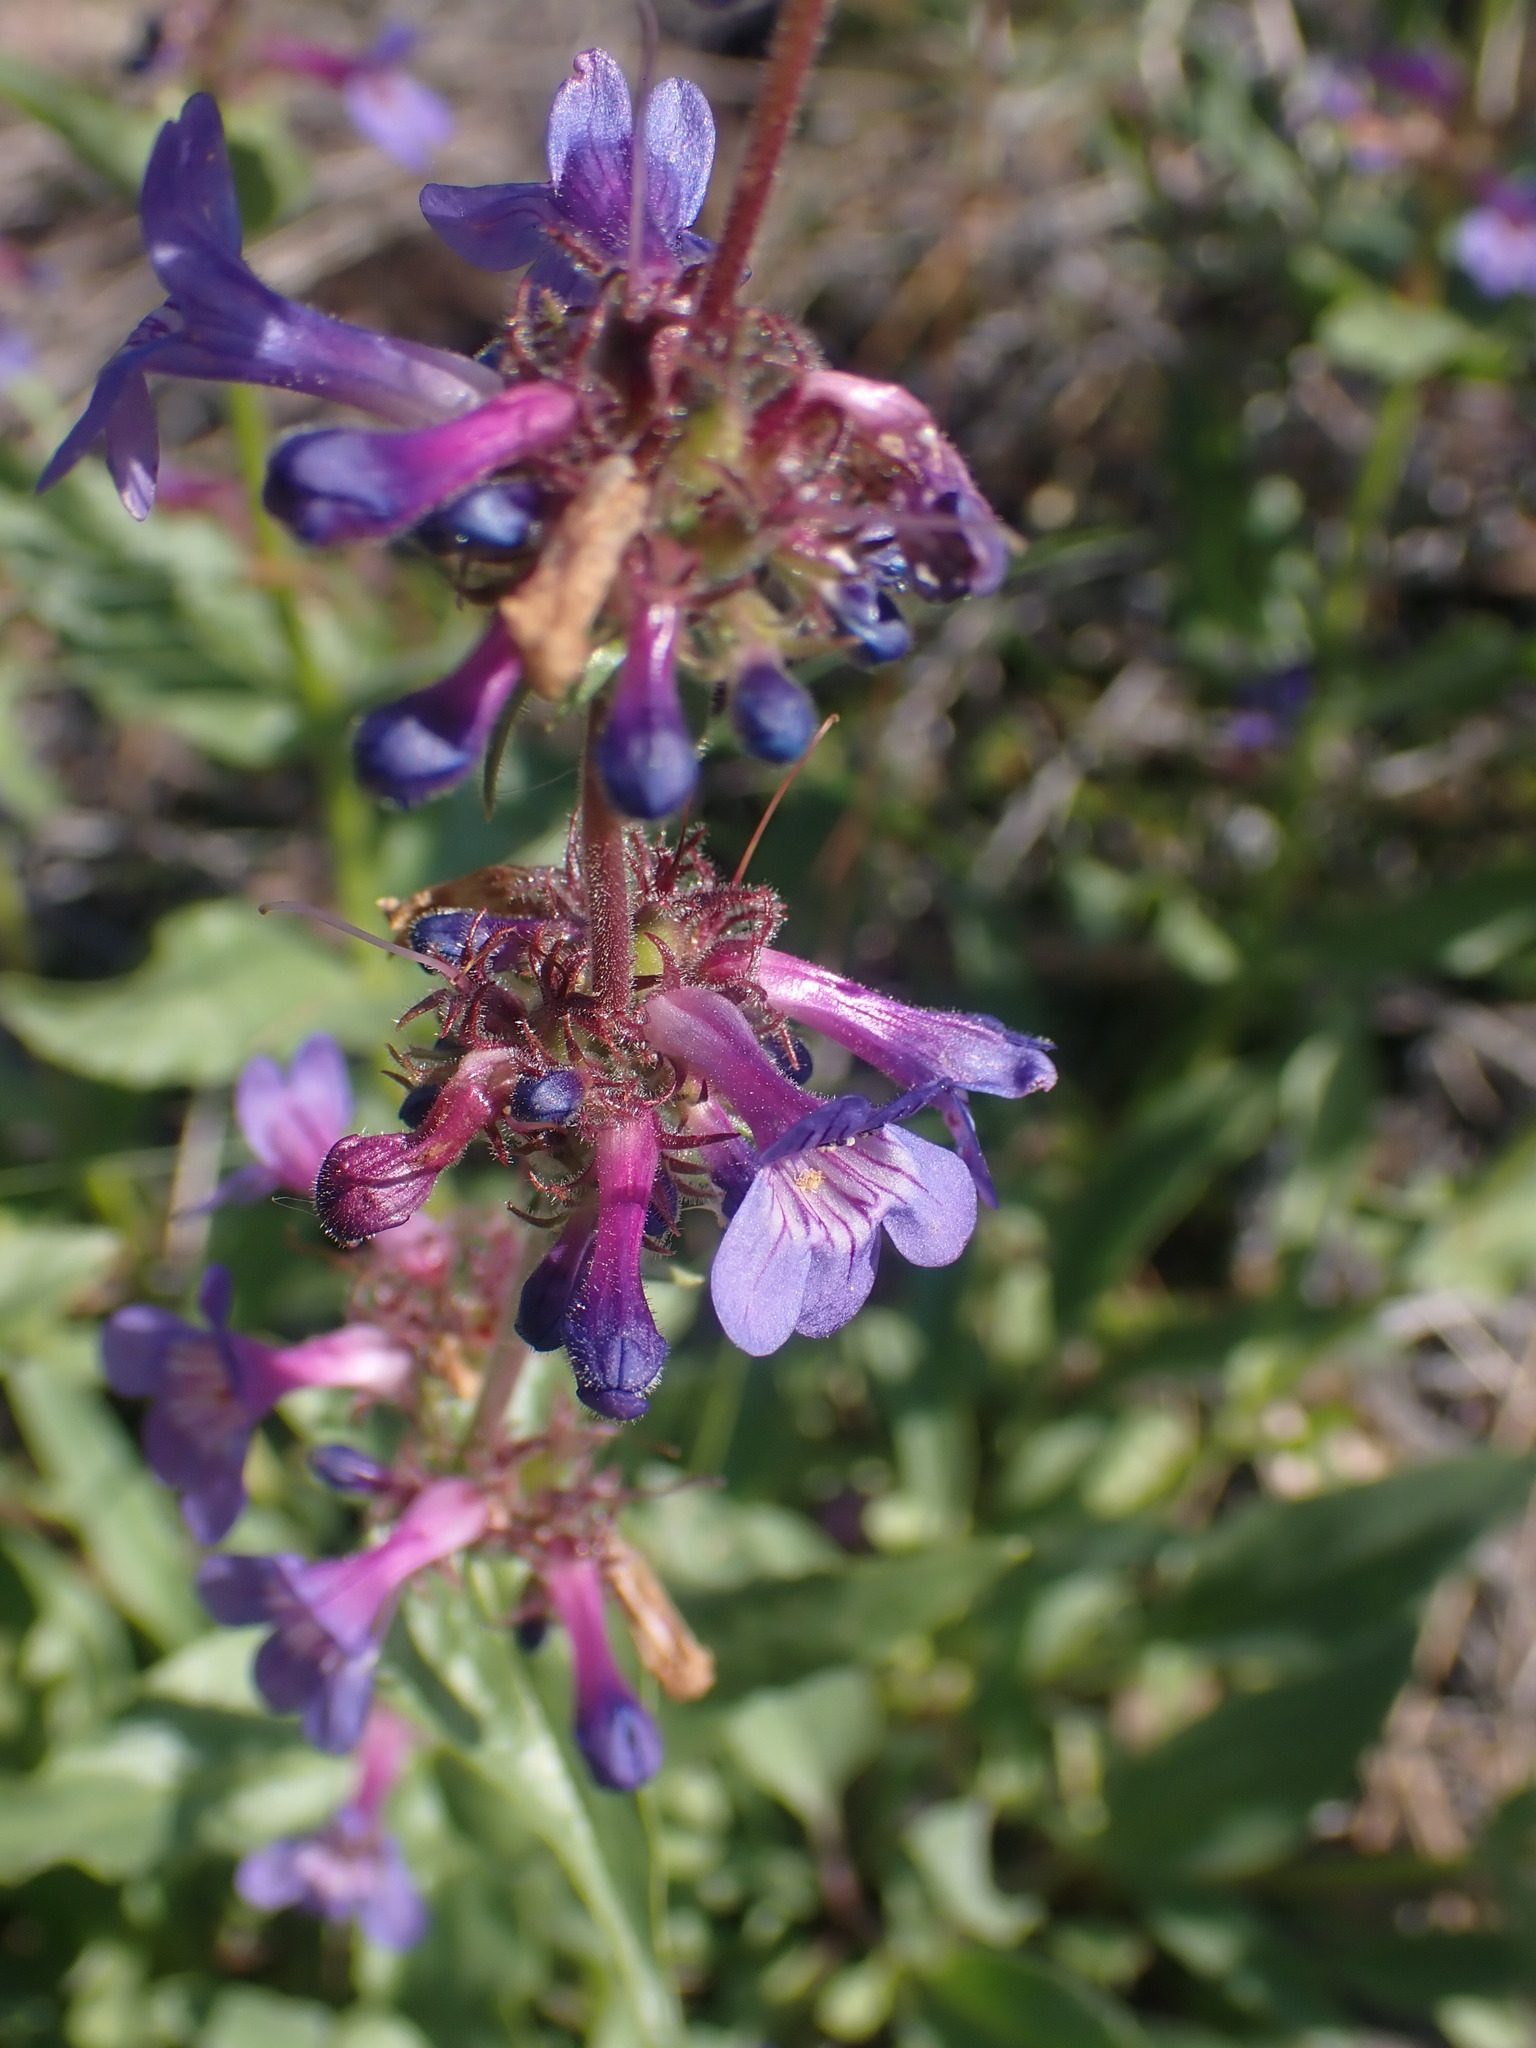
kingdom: Plantae
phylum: Tracheophyta
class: Magnoliopsida
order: Lamiales
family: Plantaginaceae
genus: Penstemon
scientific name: Penstemon pruinosus
